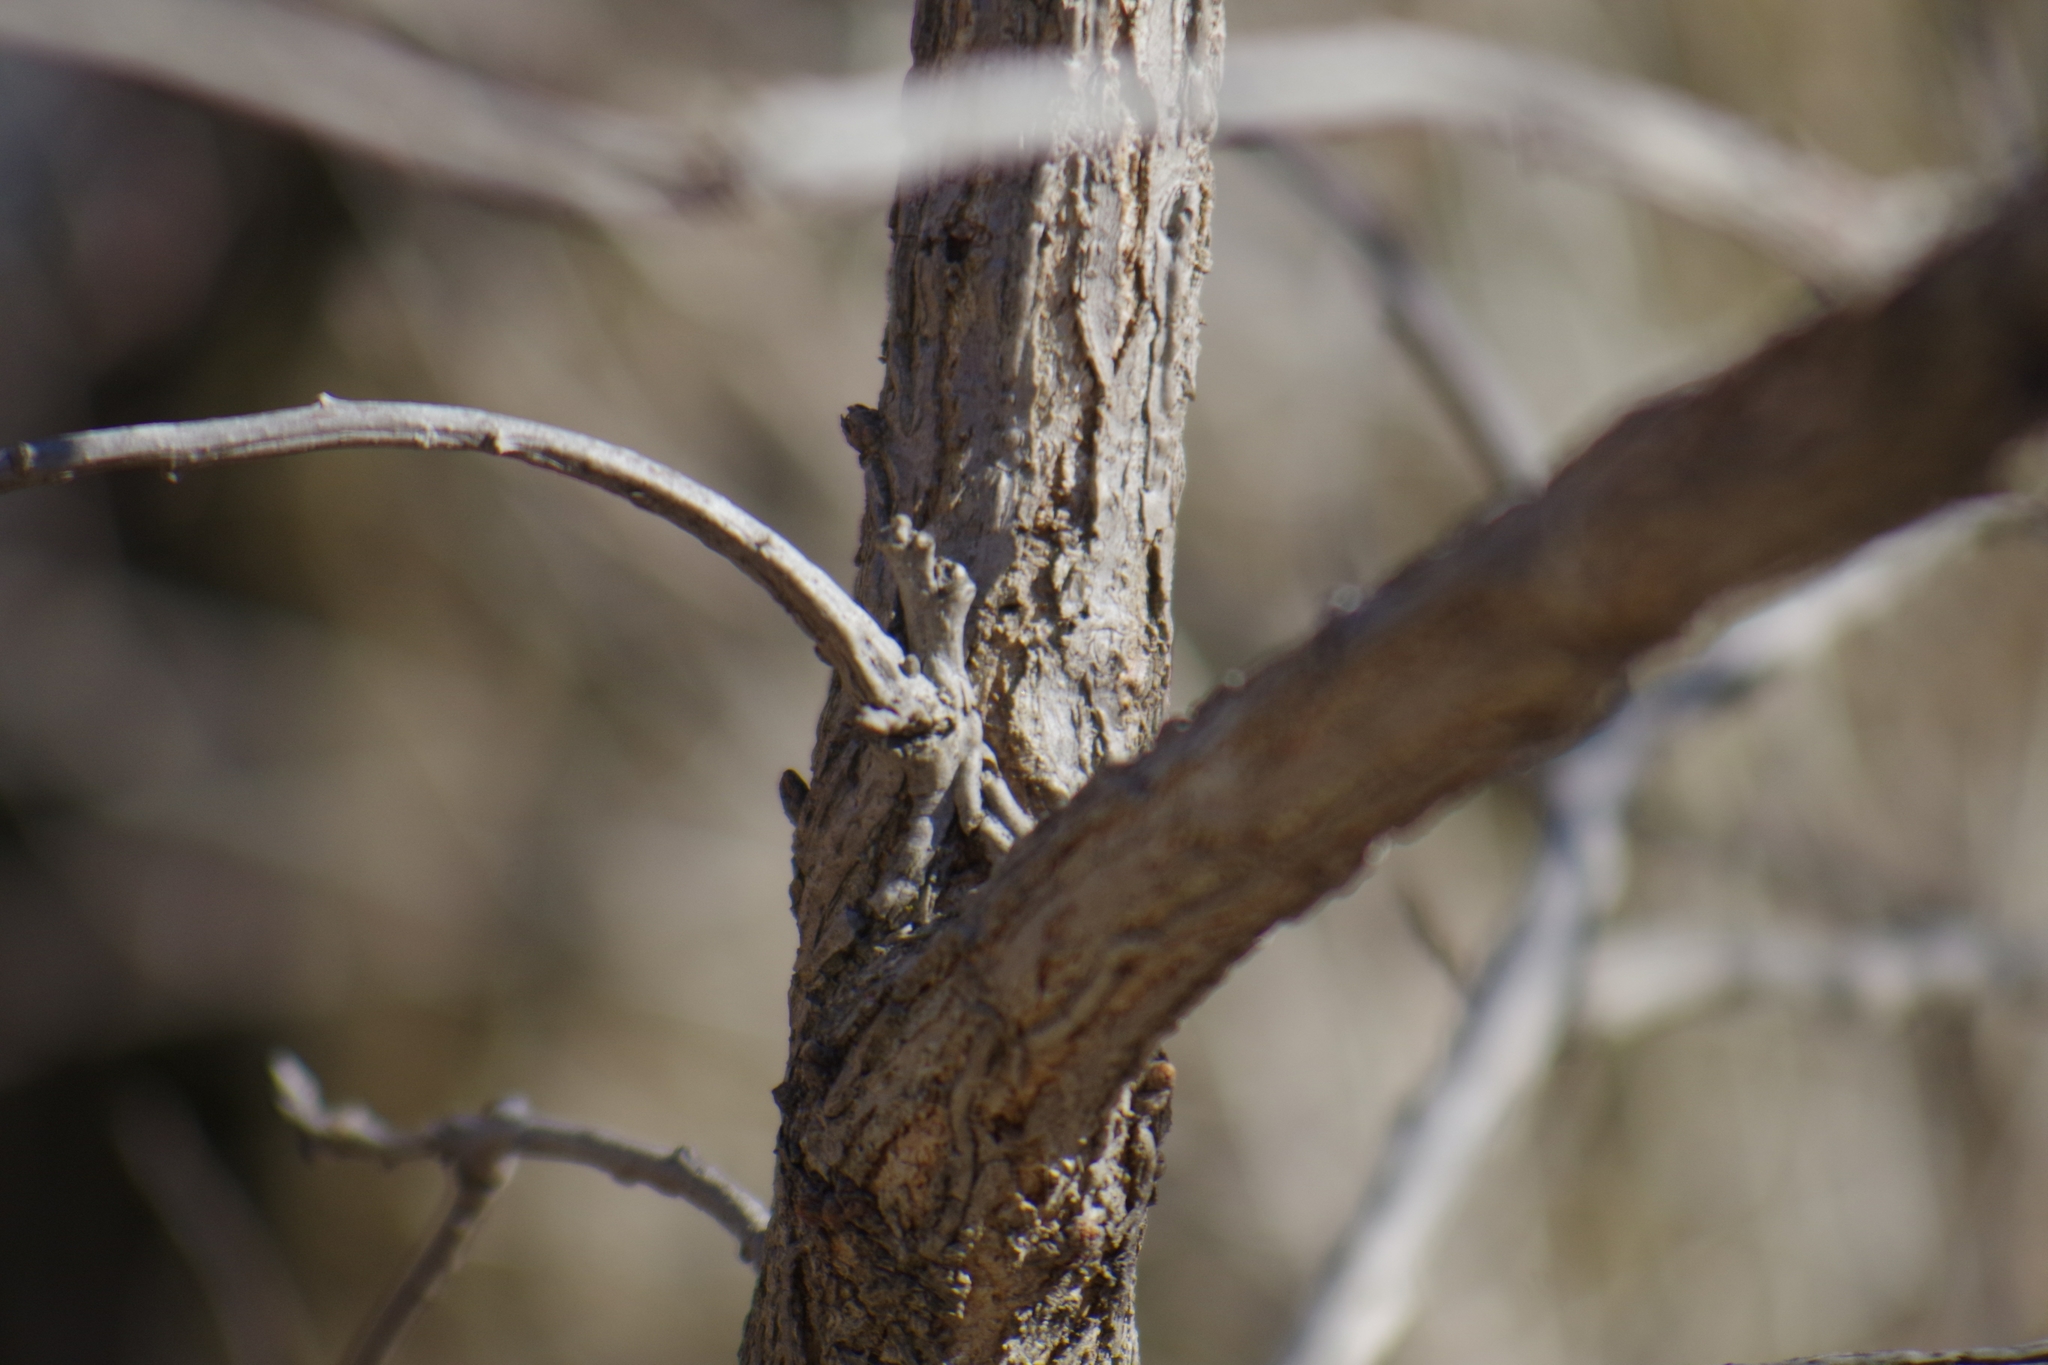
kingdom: Plantae
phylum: Tracheophyta
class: Magnoliopsida
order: Fagales
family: Fagaceae
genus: Quercus
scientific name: Quercus macrocarpa
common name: Bur oak
